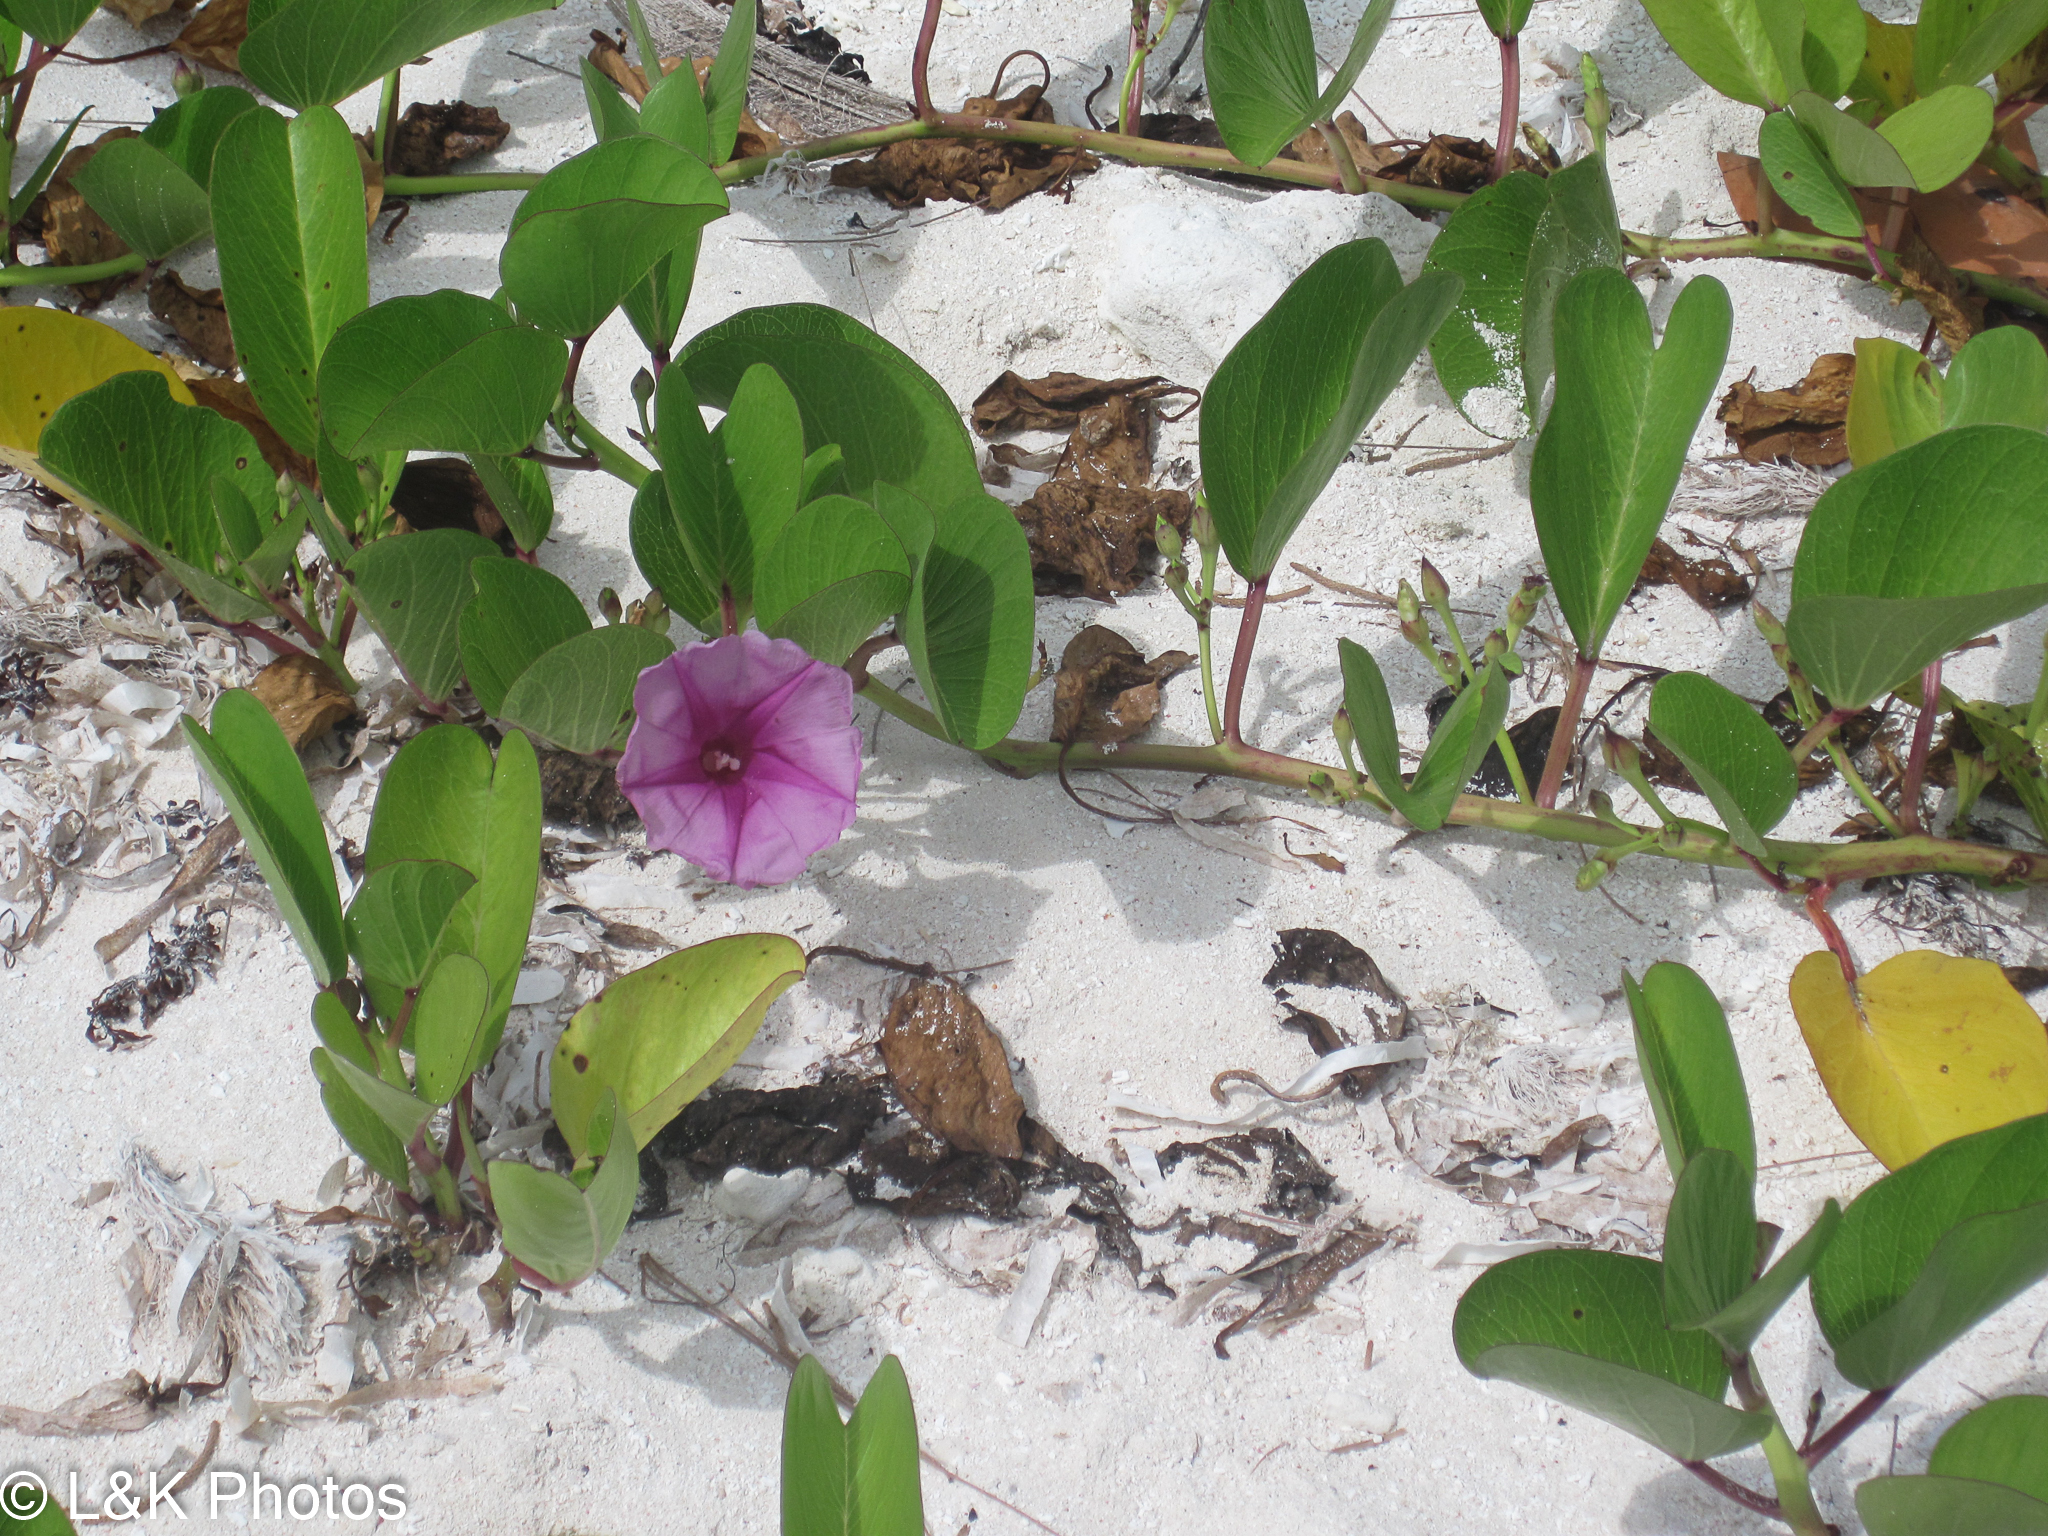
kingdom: Plantae
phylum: Tracheophyta
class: Magnoliopsida
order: Solanales
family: Convolvulaceae
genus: Ipomoea
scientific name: Ipomoea pes-caprae
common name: Beach morning glory
